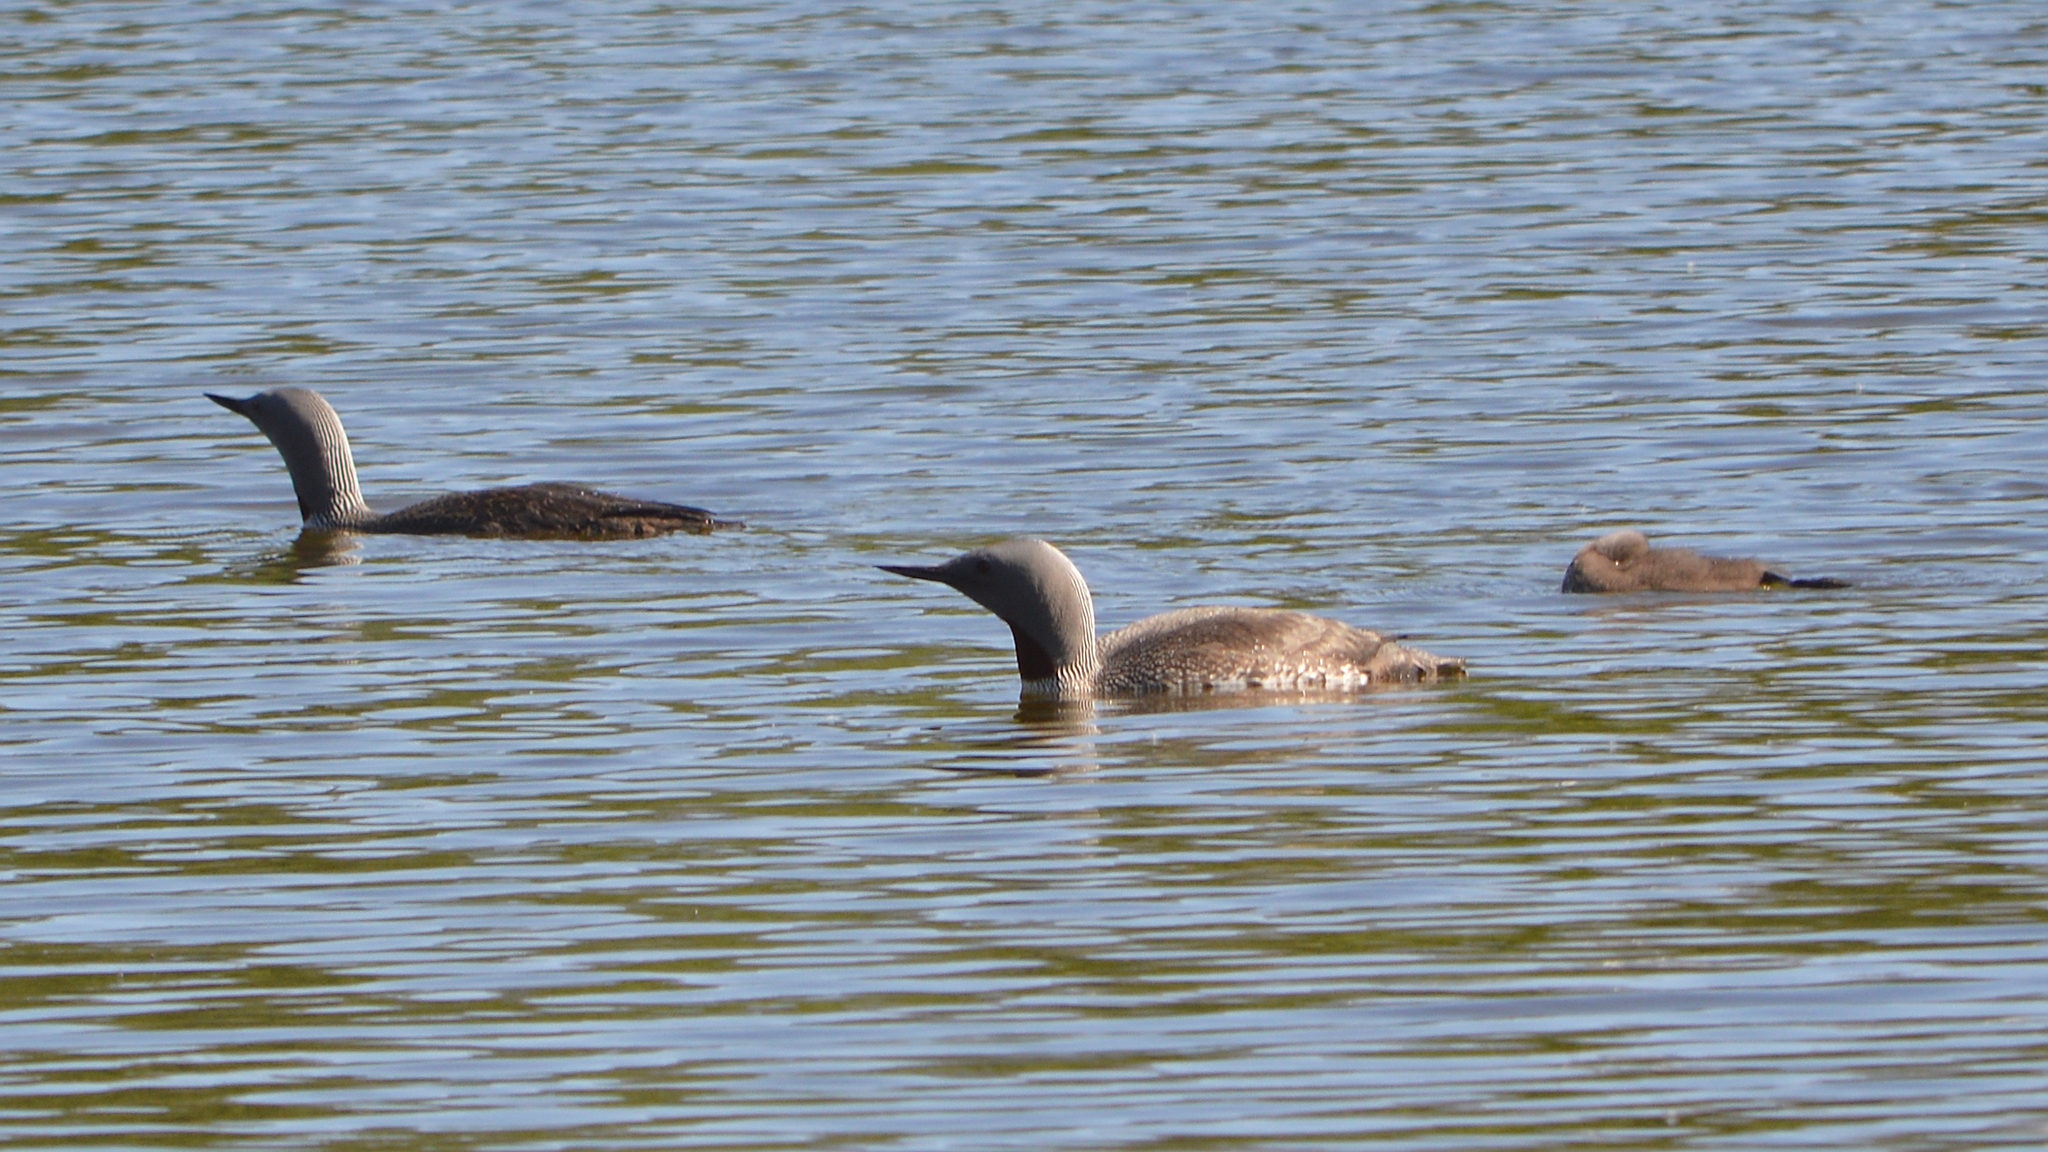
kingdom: Animalia
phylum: Chordata
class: Aves
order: Gaviiformes
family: Gaviidae
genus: Gavia
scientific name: Gavia stellata
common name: Red-throated loon
